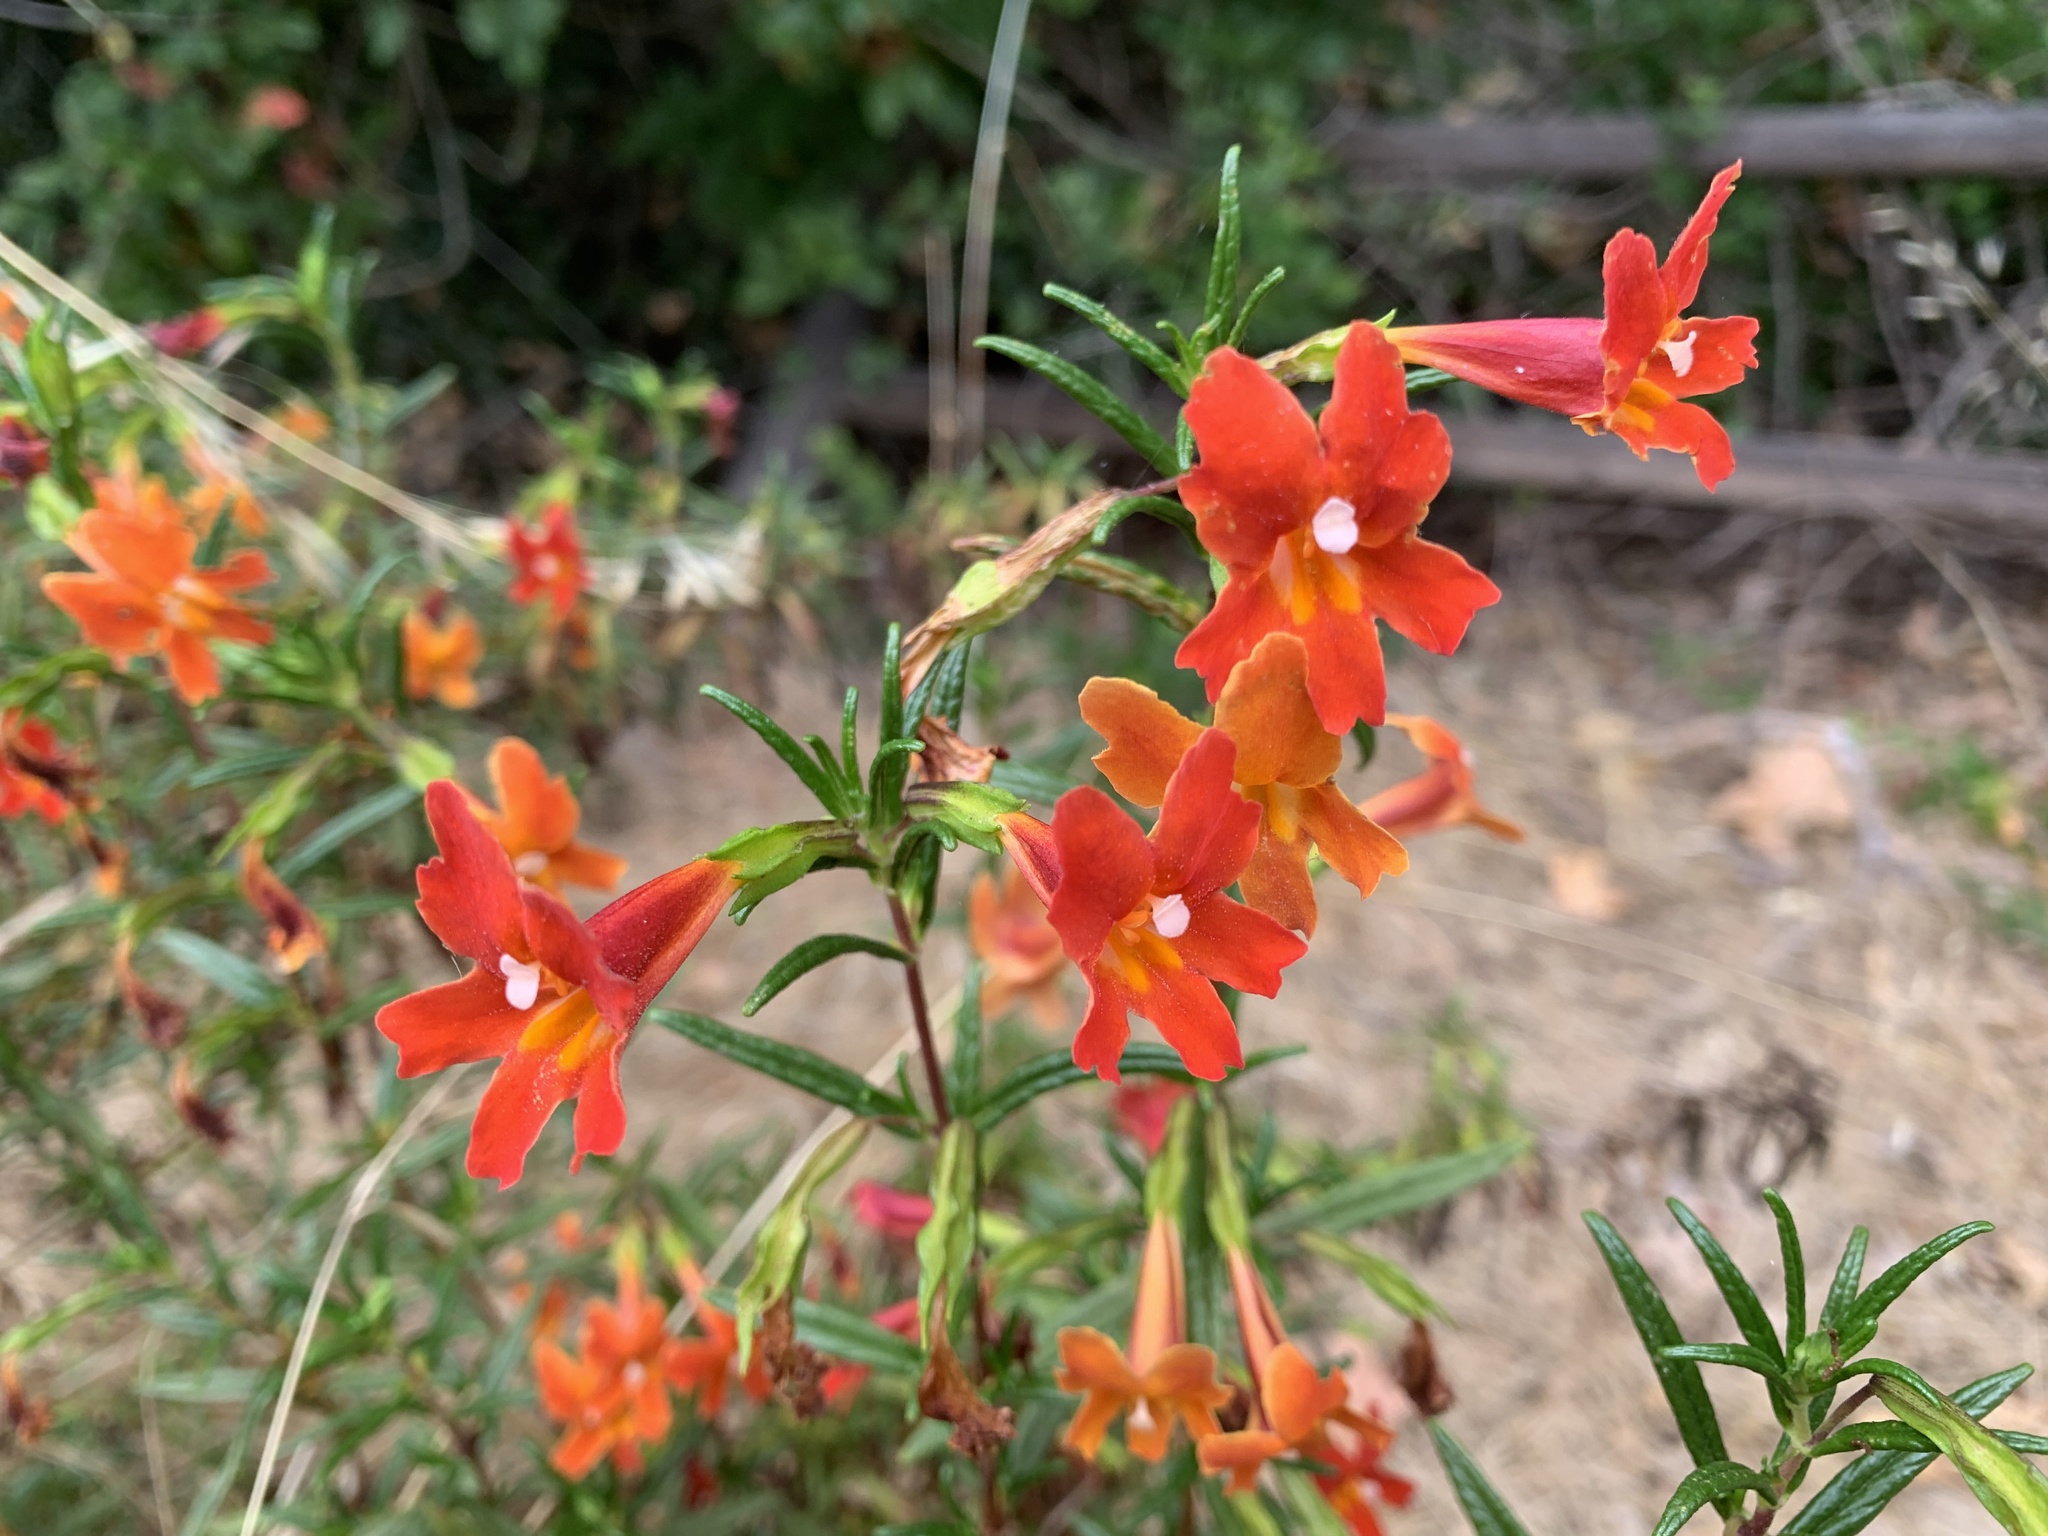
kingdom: Plantae
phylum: Tracheophyta
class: Magnoliopsida
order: Lamiales
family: Phrymaceae
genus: Diplacus
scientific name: Diplacus puniceus
